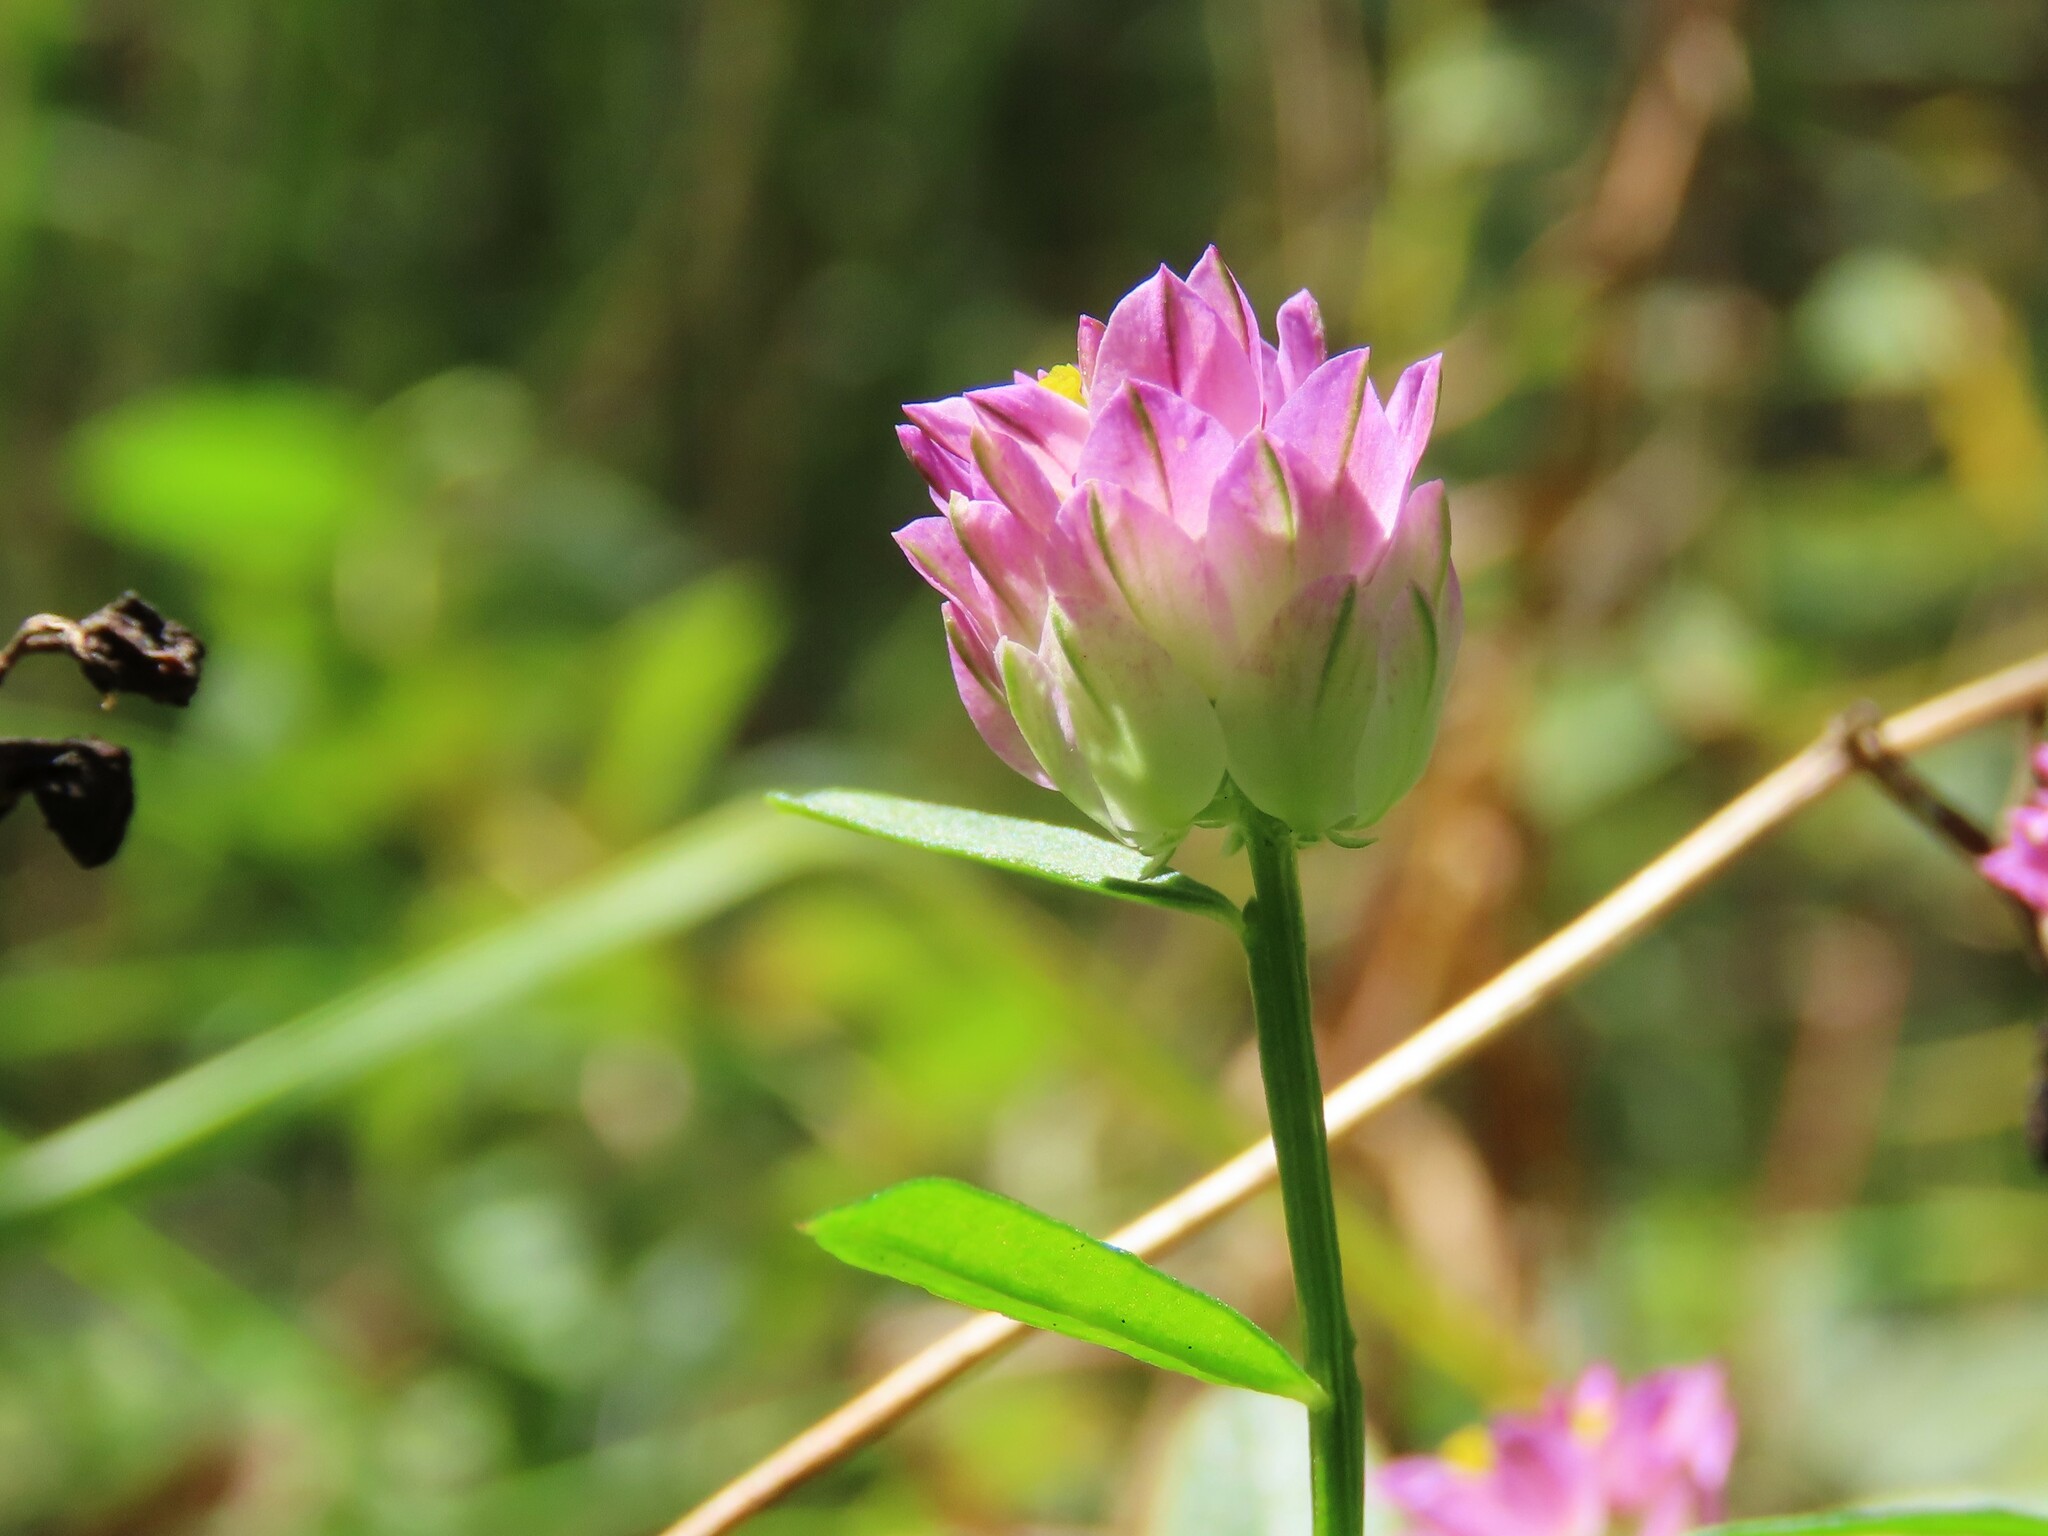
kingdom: Plantae
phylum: Tracheophyta
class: Magnoliopsida
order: Fabales
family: Polygalaceae
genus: Polygala
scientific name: Polygala sanguinea
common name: Blood milkwort
